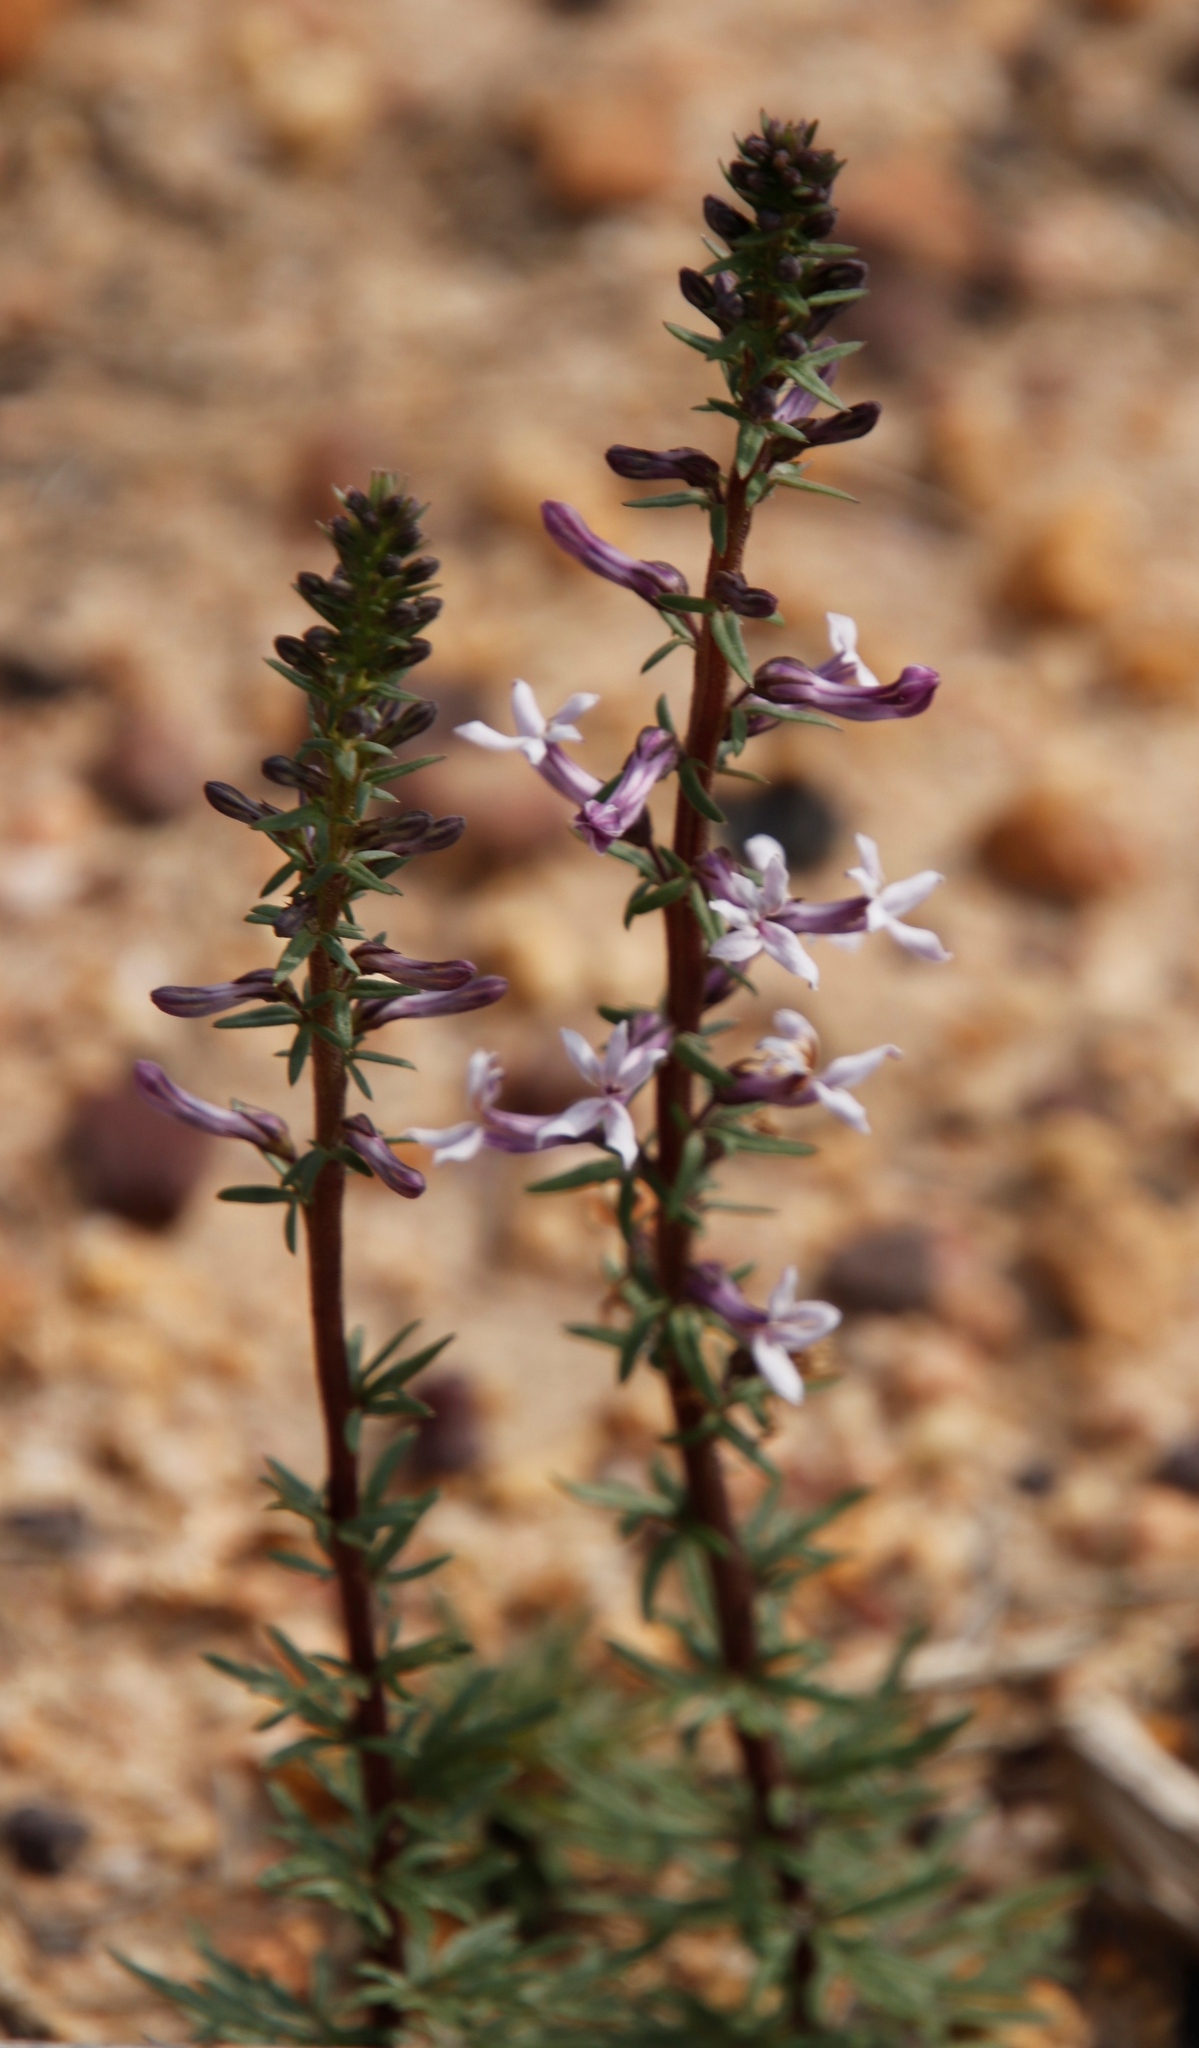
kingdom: Plantae
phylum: Tracheophyta
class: Magnoliopsida
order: Asterales
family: Campanulaceae
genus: Cyphia
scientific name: Cyphia bulbosa
